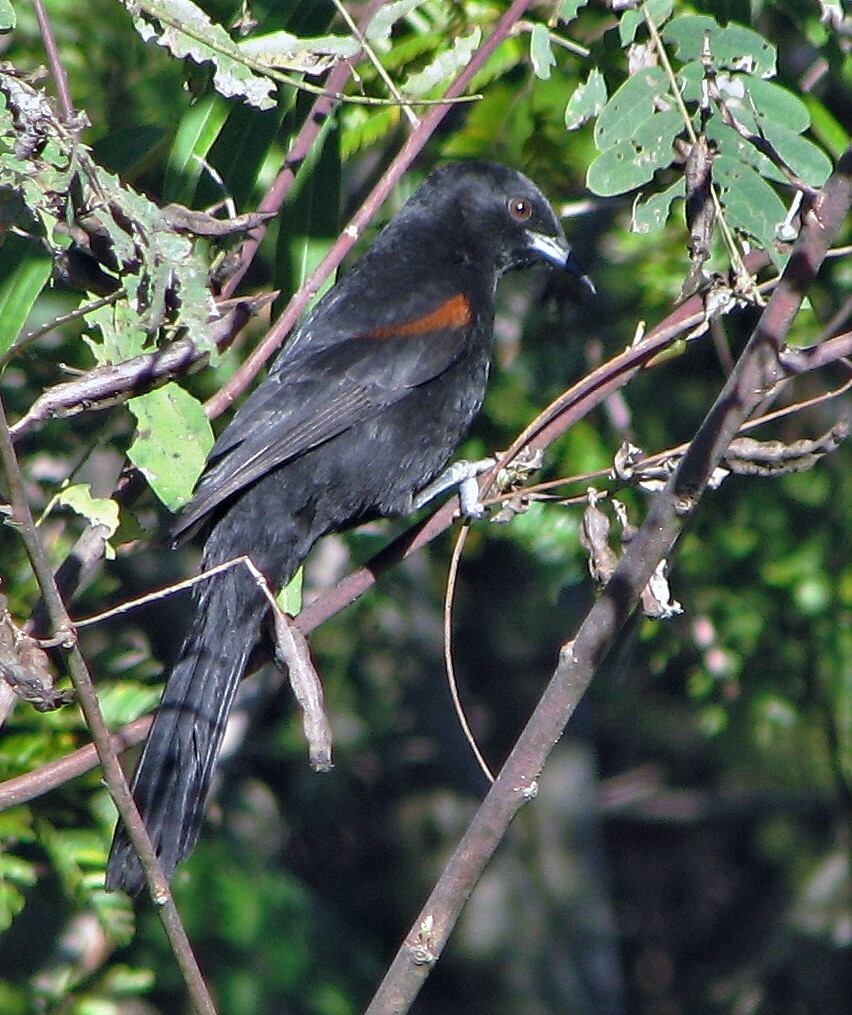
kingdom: Animalia
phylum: Chordata
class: Aves
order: Passeriformes
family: Icteridae
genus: Icterus
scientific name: Icterus cayanensis
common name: Epaulet oriole
